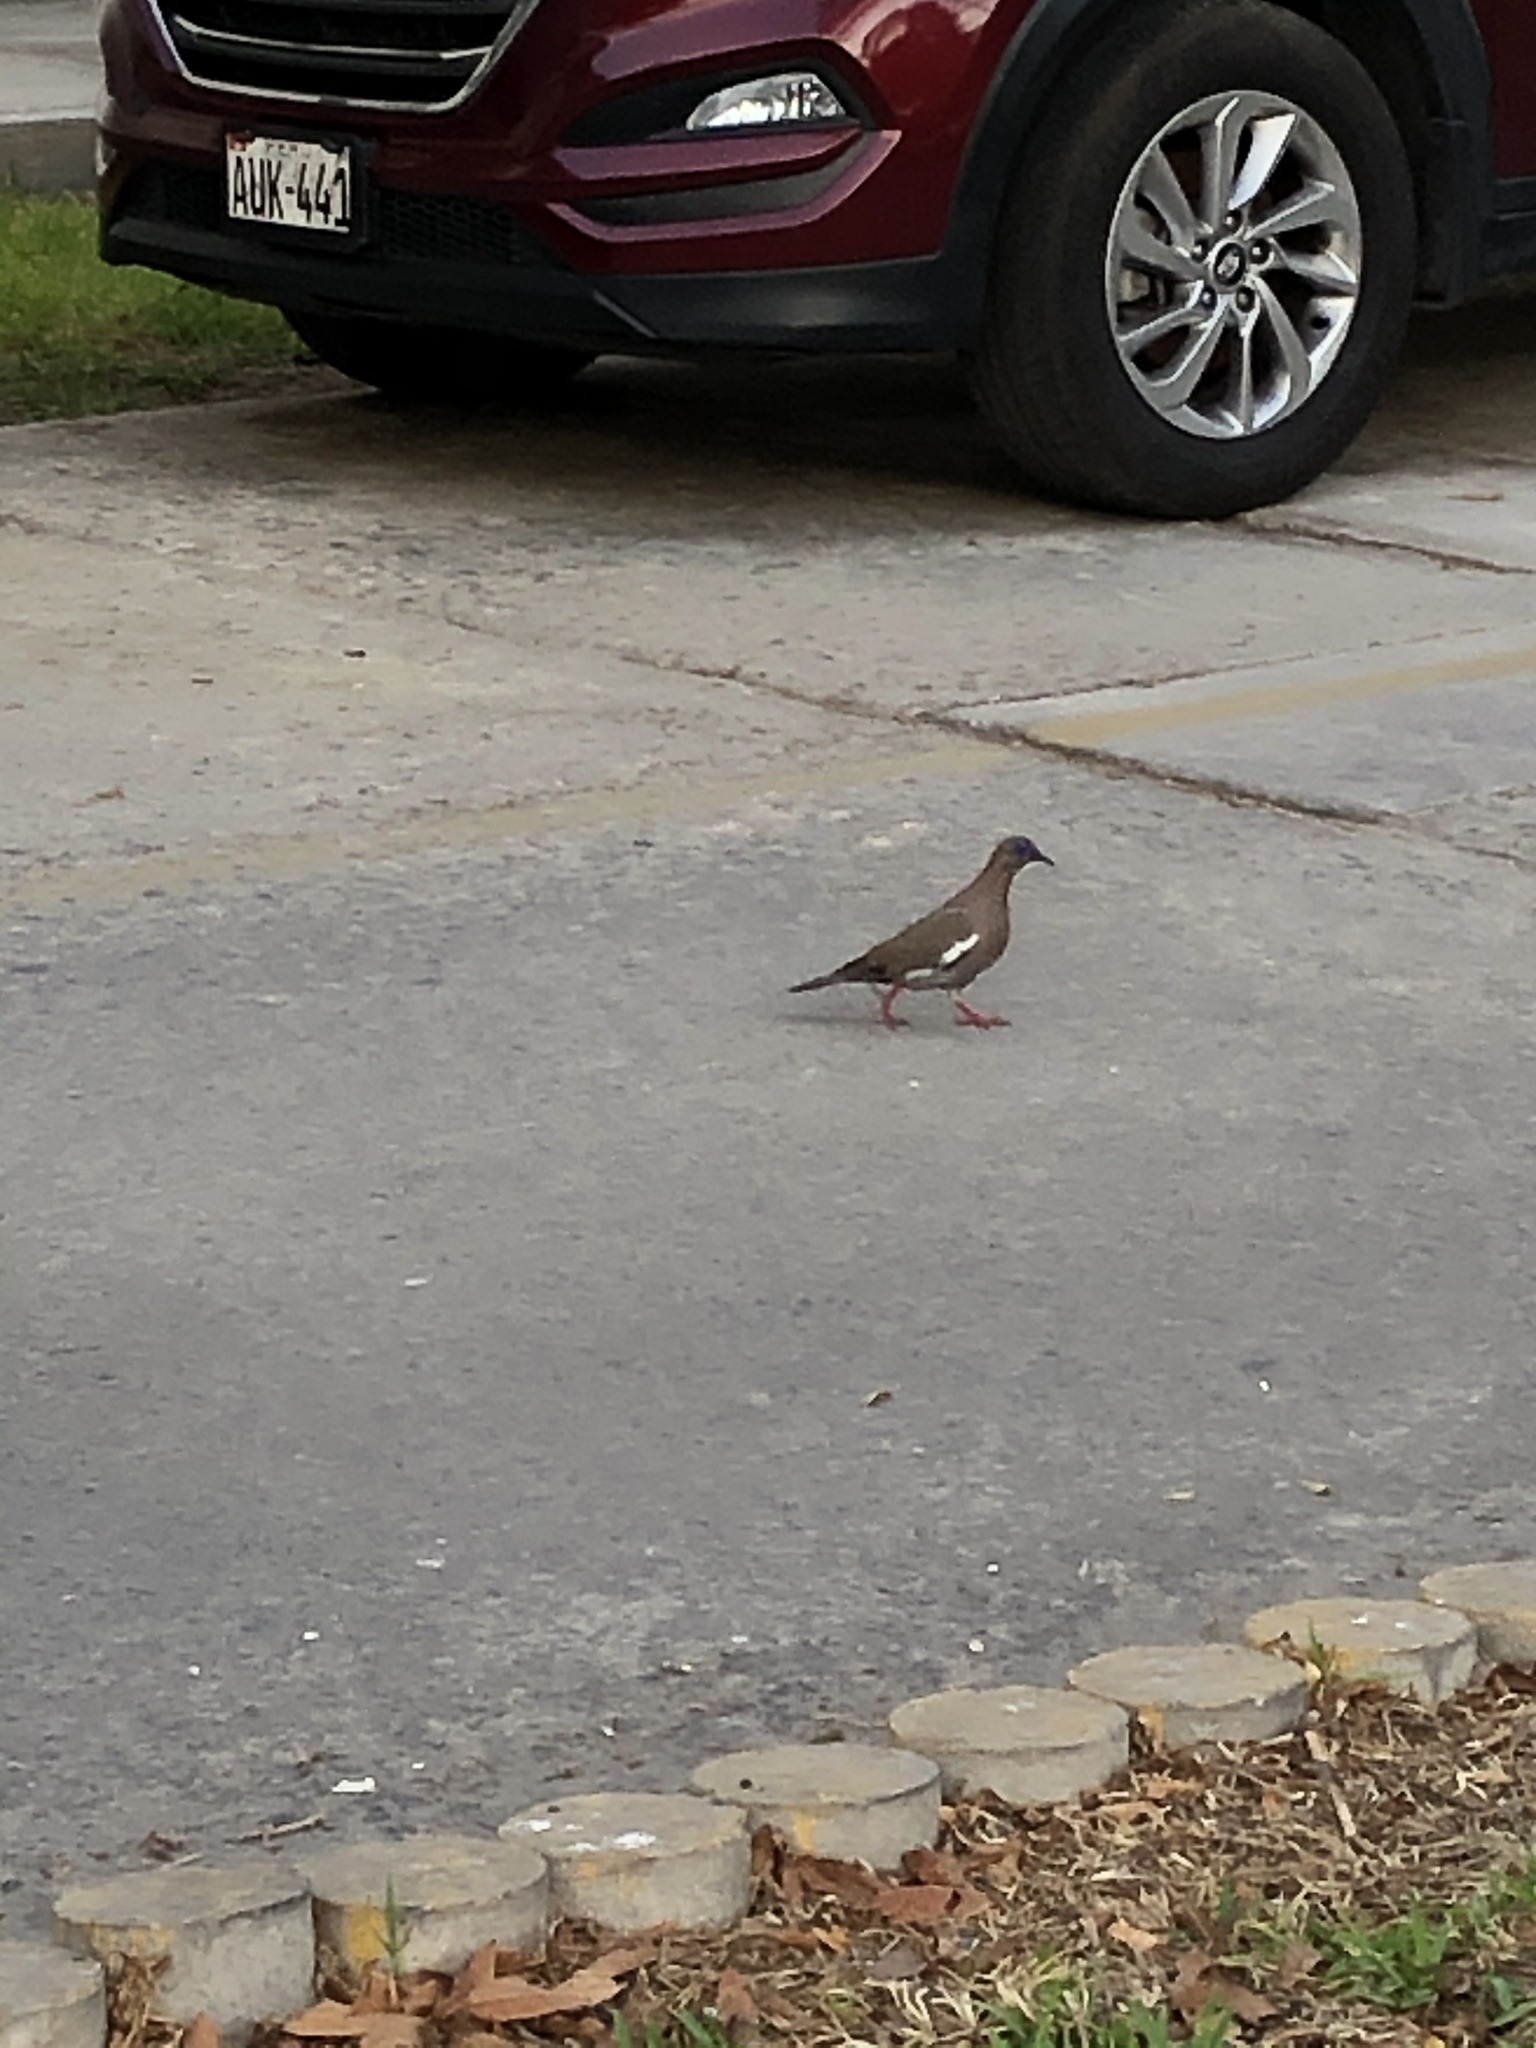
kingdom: Animalia
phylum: Chordata
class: Aves
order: Columbiformes
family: Columbidae
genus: Zenaida
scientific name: Zenaida meloda
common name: West peruvian dove
